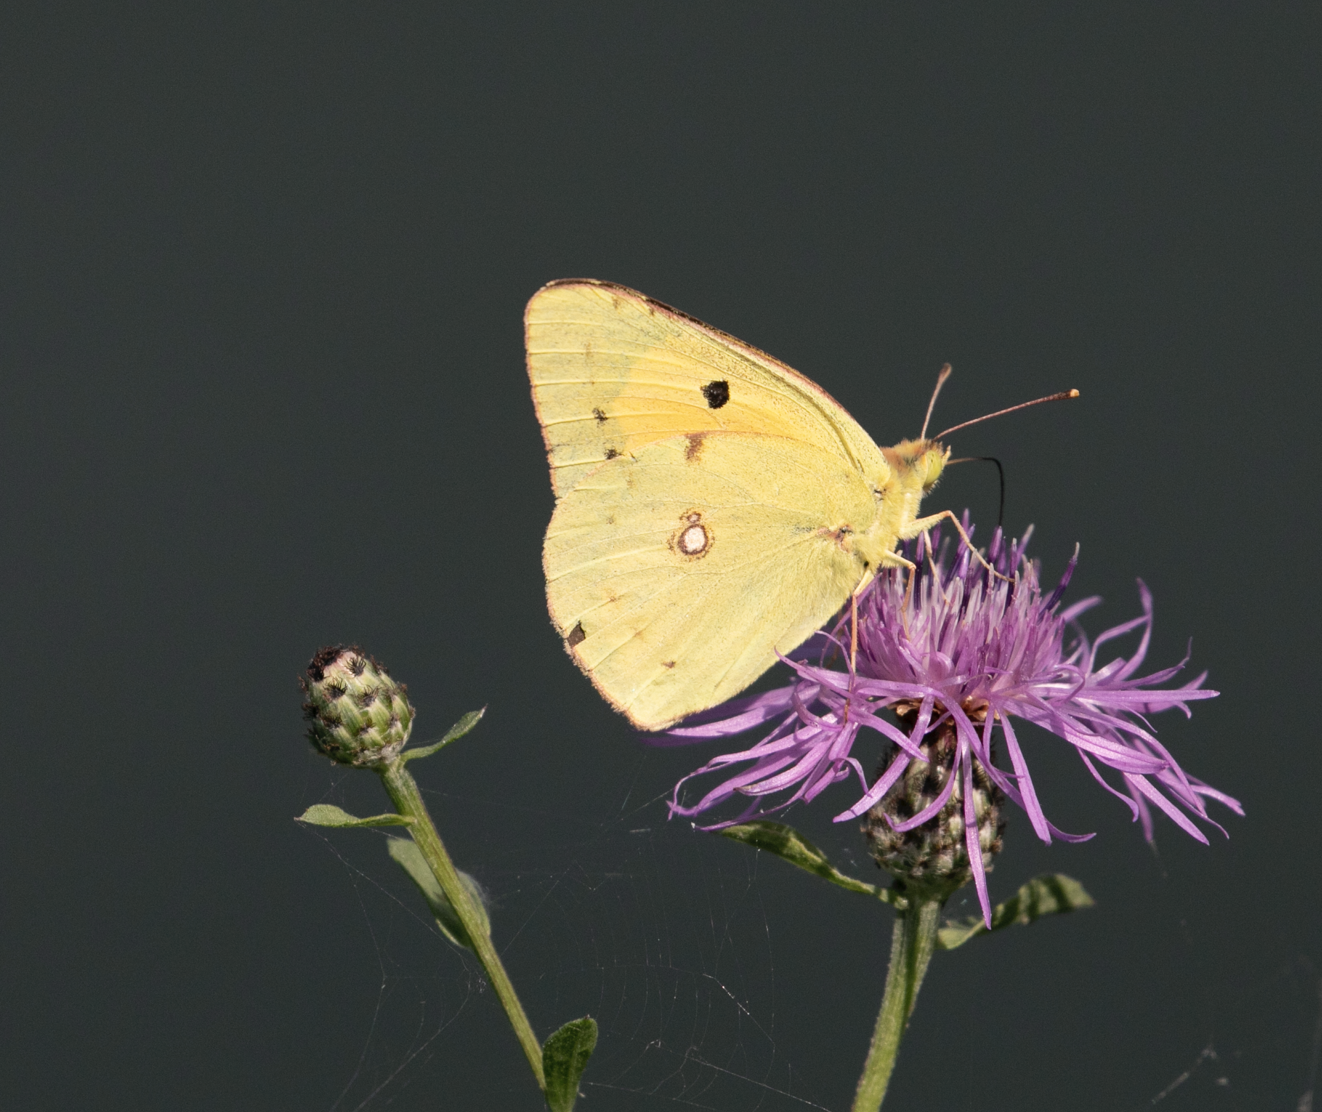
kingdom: Animalia
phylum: Arthropoda
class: Insecta
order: Lepidoptera
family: Pieridae
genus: Colias
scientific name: Colias croceus
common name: Clouded yellow
